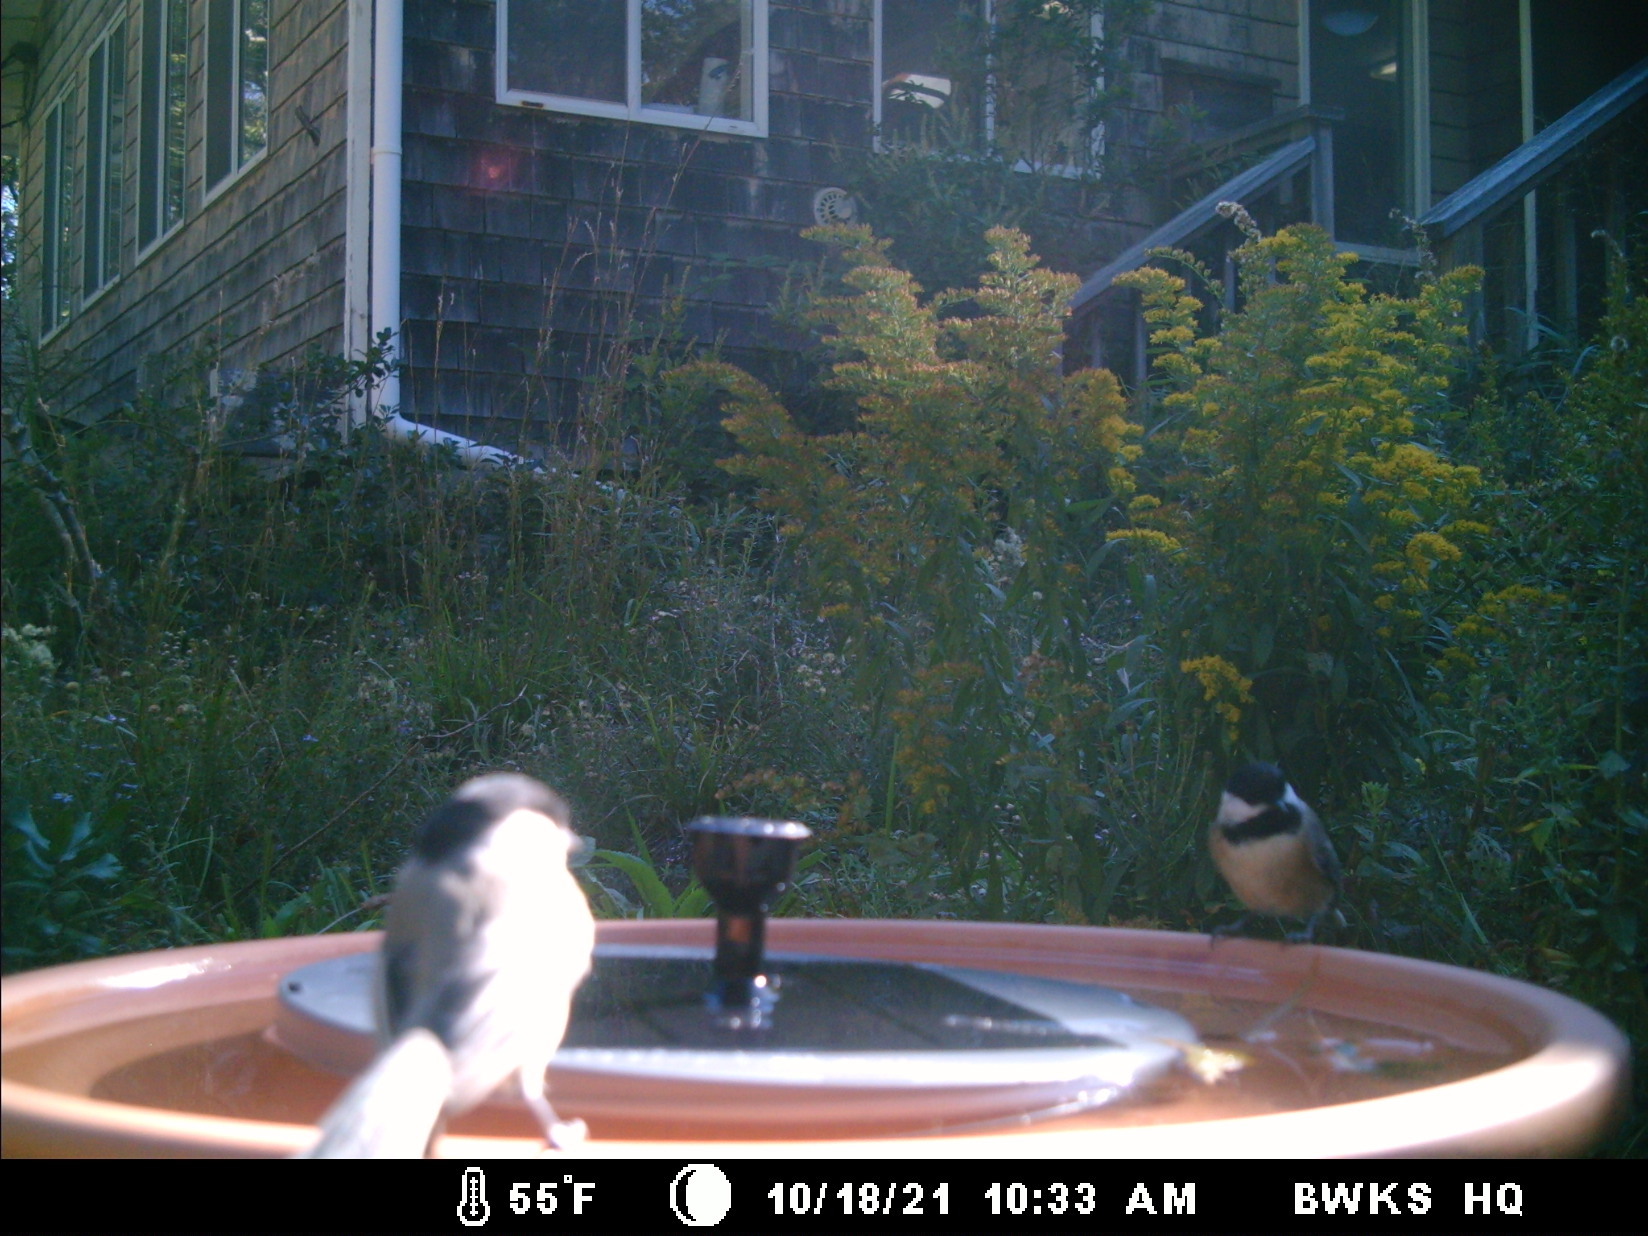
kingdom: Animalia
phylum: Chordata
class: Aves
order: Passeriformes
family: Paridae
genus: Poecile
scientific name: Poecile atricapillus
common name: Black-capped chickadee
